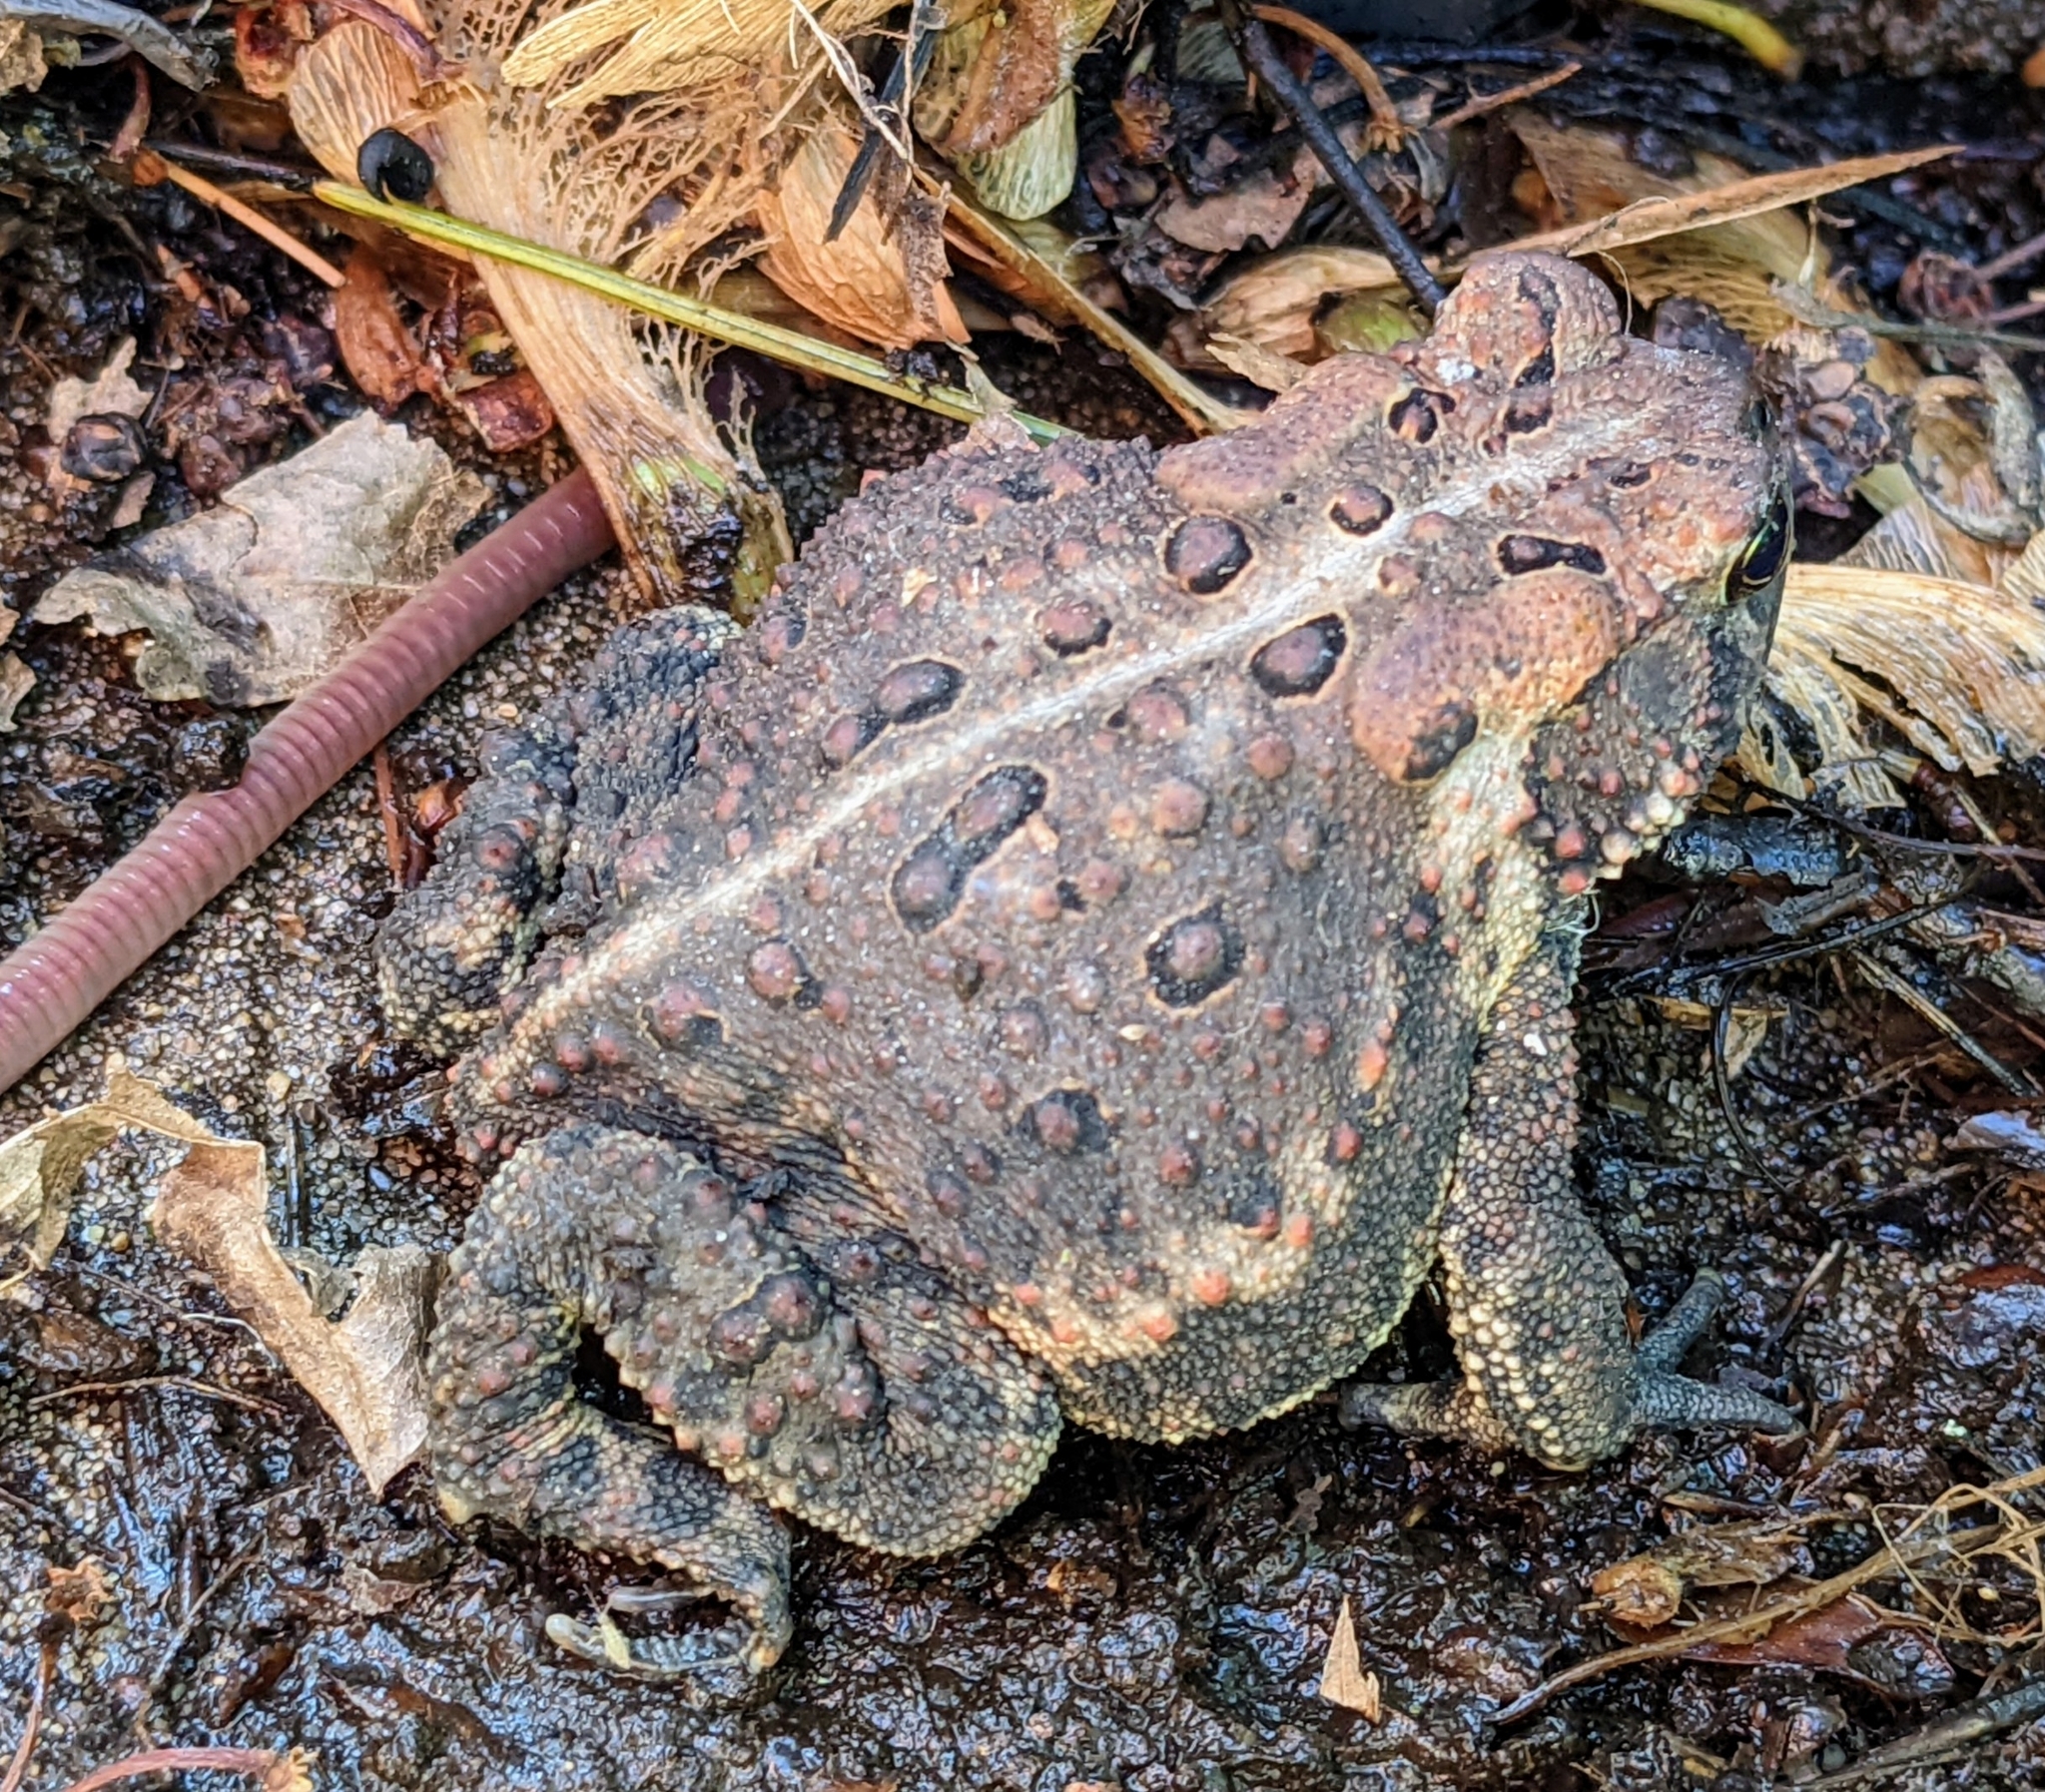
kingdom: Animalia
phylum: Chordata
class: Amphibia
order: Anura
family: Bufonidae
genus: Anaxyrus
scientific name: Anaxyrus americanus
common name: American toad
